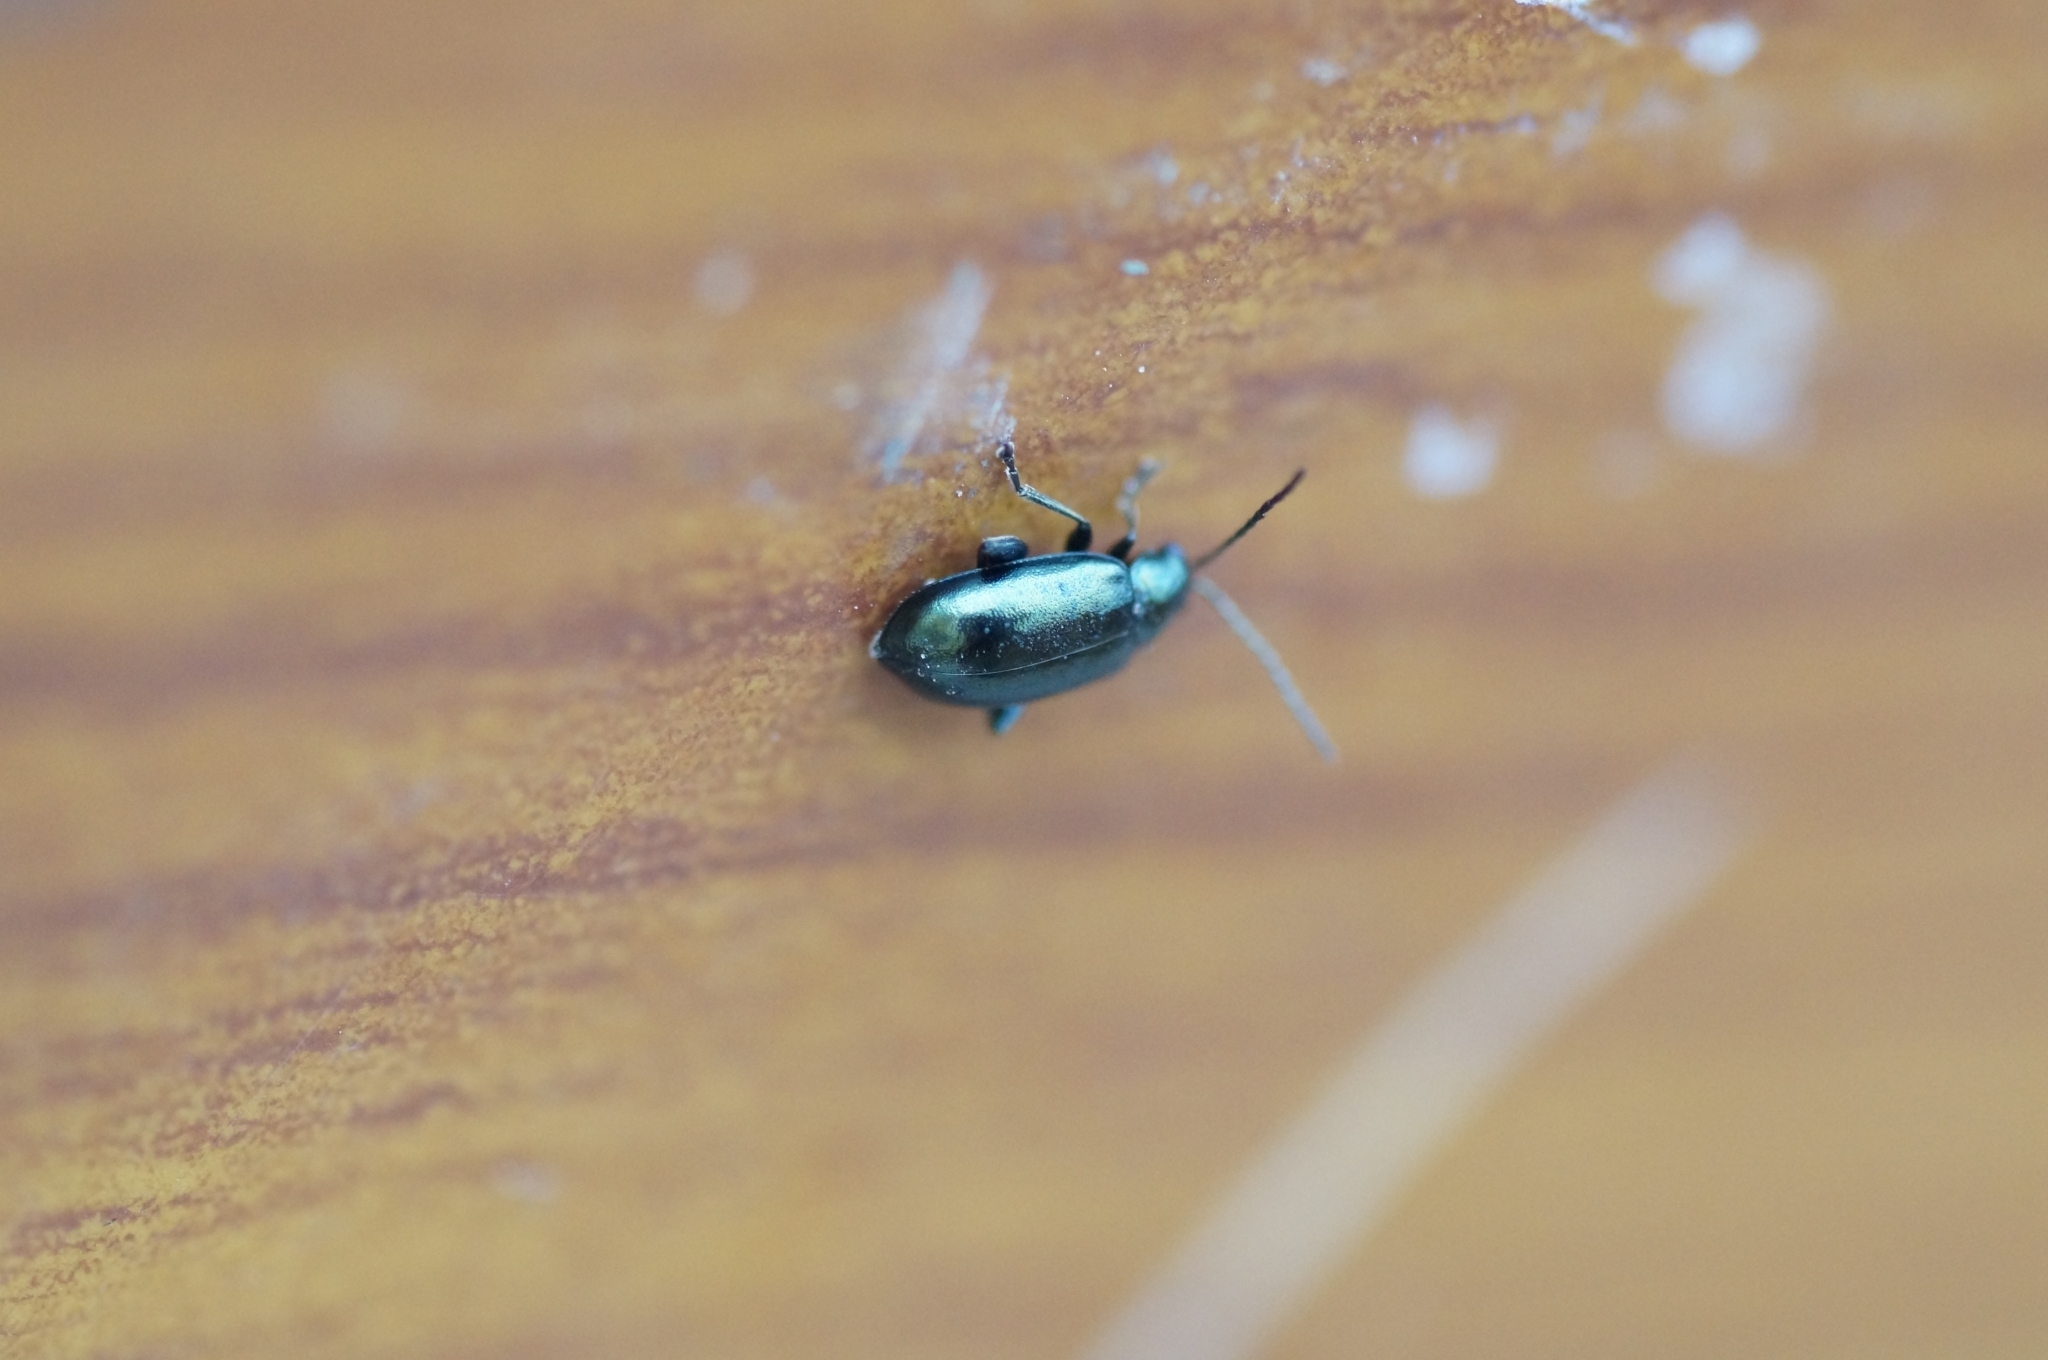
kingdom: Animalia
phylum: Arthropoda
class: Insecta
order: Coleoptera
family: Chrysomelidae
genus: Altica
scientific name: Altica
